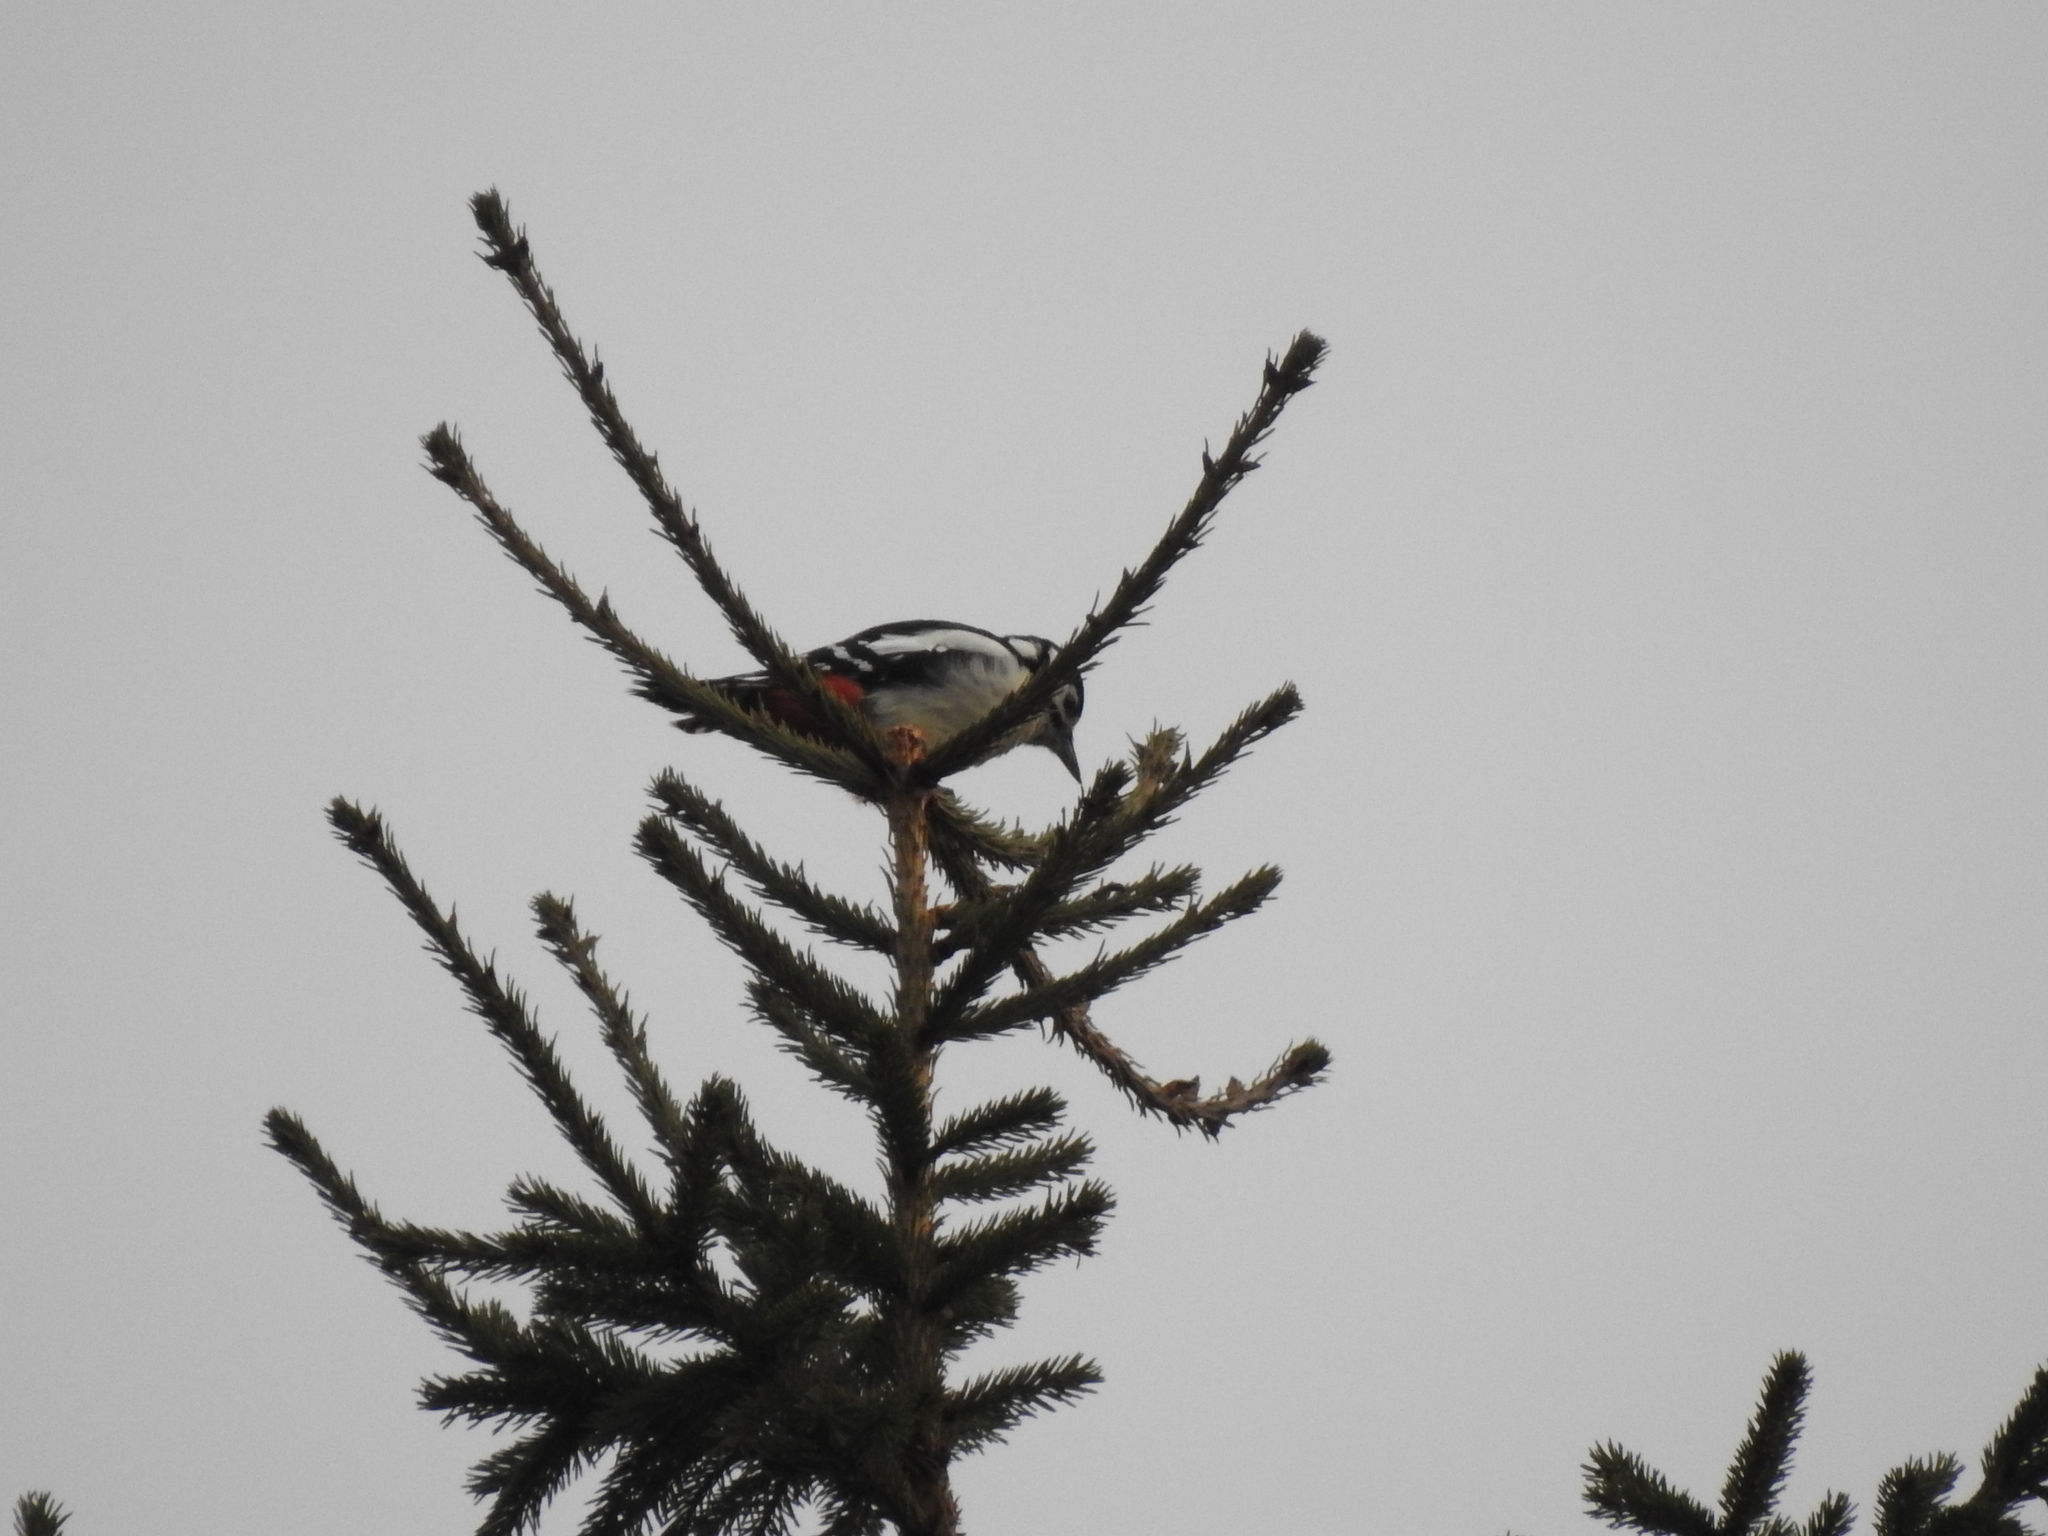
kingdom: Animalia
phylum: Chordata
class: Aves
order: Piciformes
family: Picidae
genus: Dendrocopos
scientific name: Dendrocopos major
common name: Great spotted woodpecker
